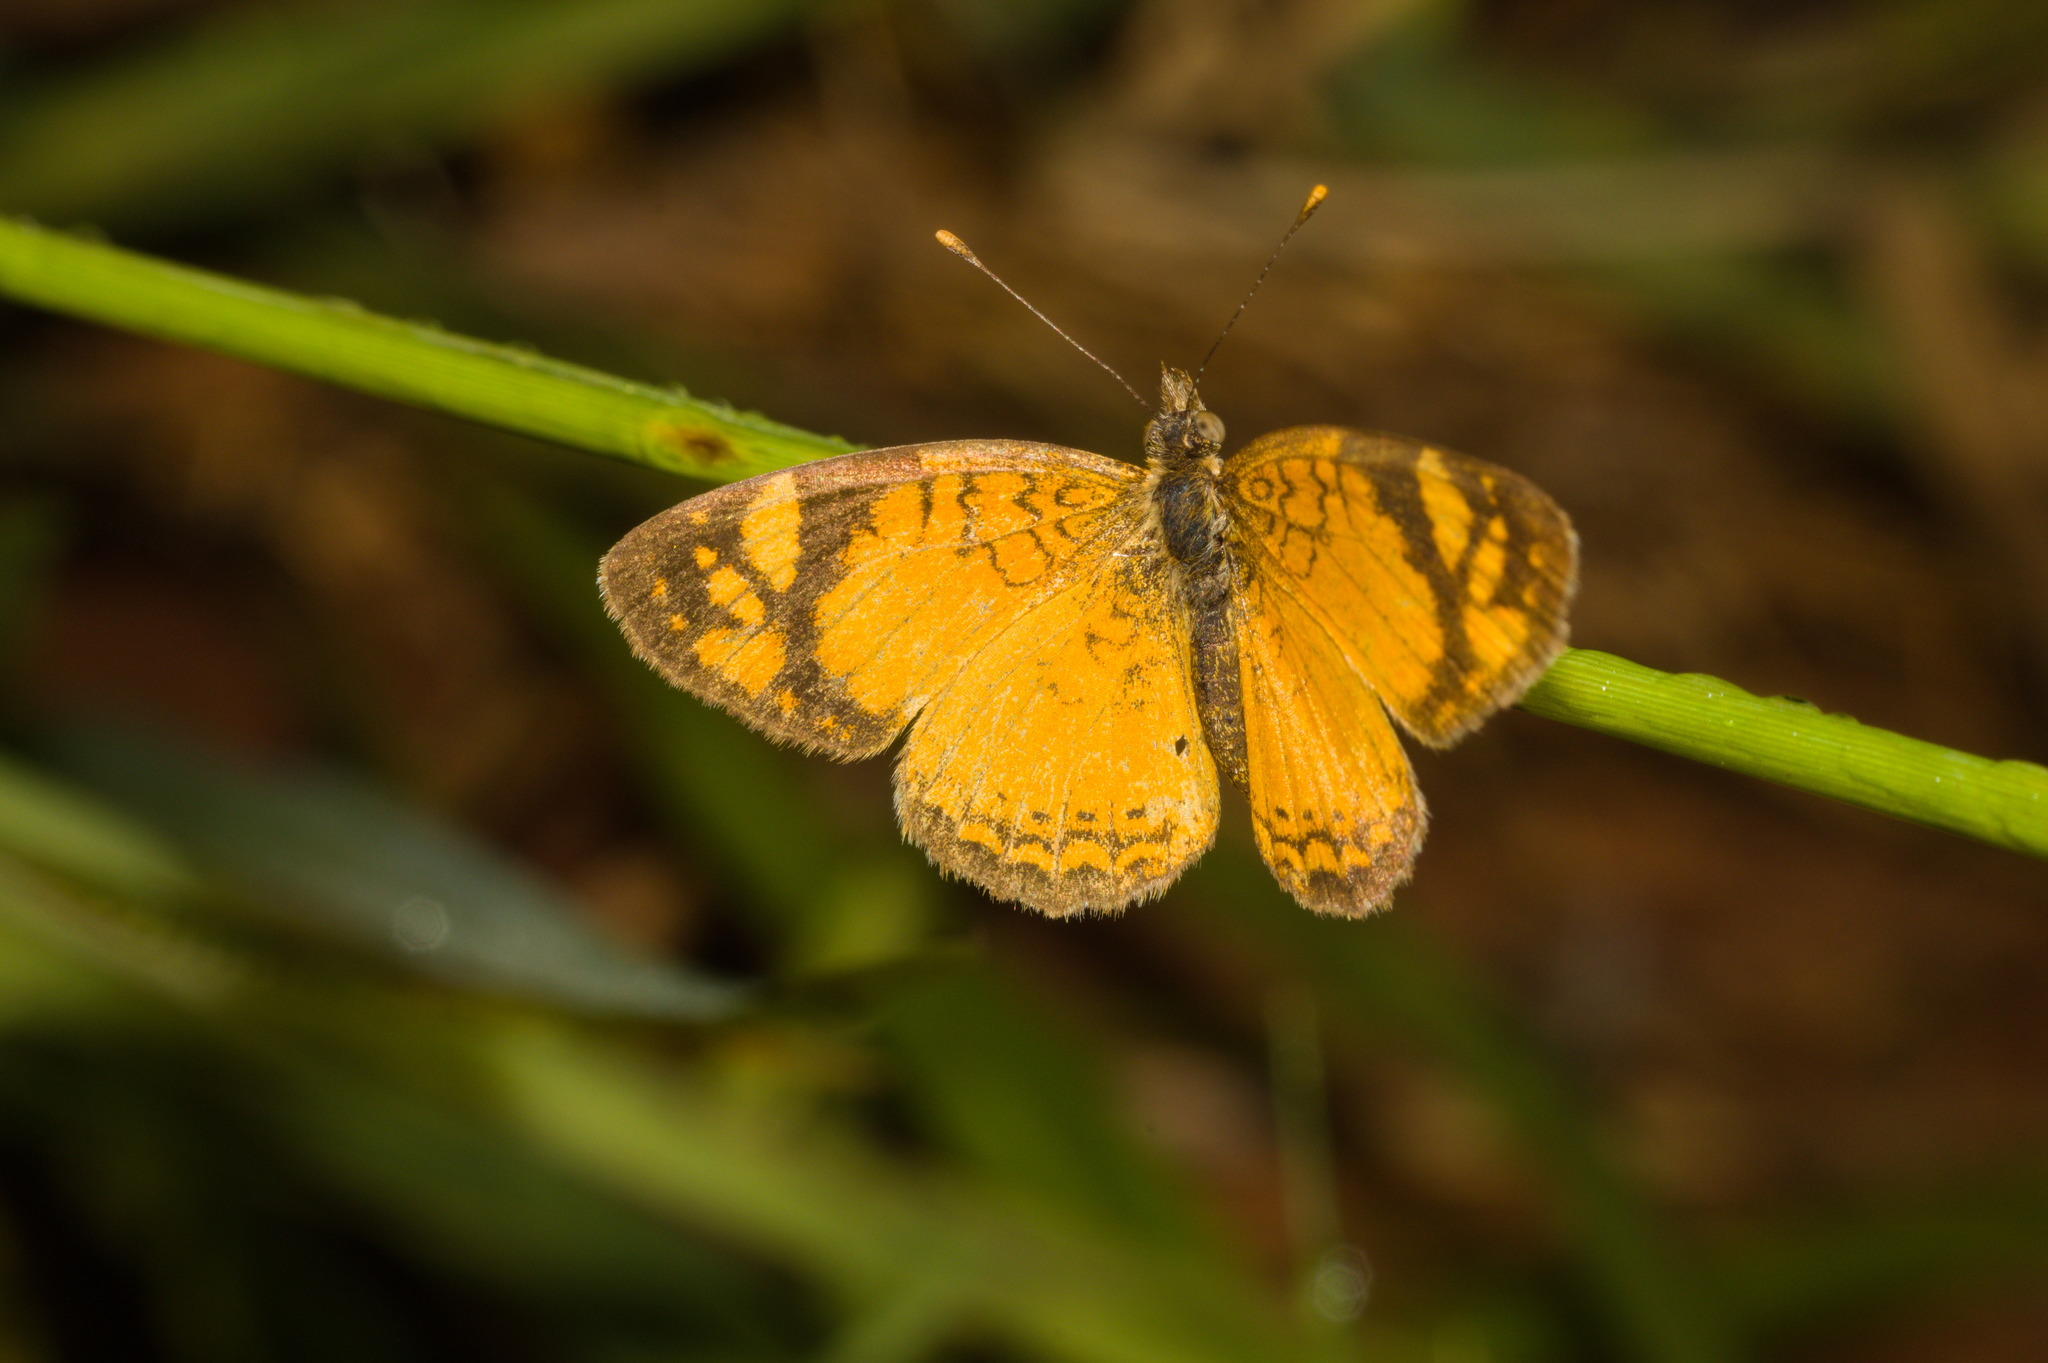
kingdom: Animalia
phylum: Arthropoda
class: Insecta
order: Lepidoptera
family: Nymphalidae
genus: Tegosa
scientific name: Tegosa claudina
